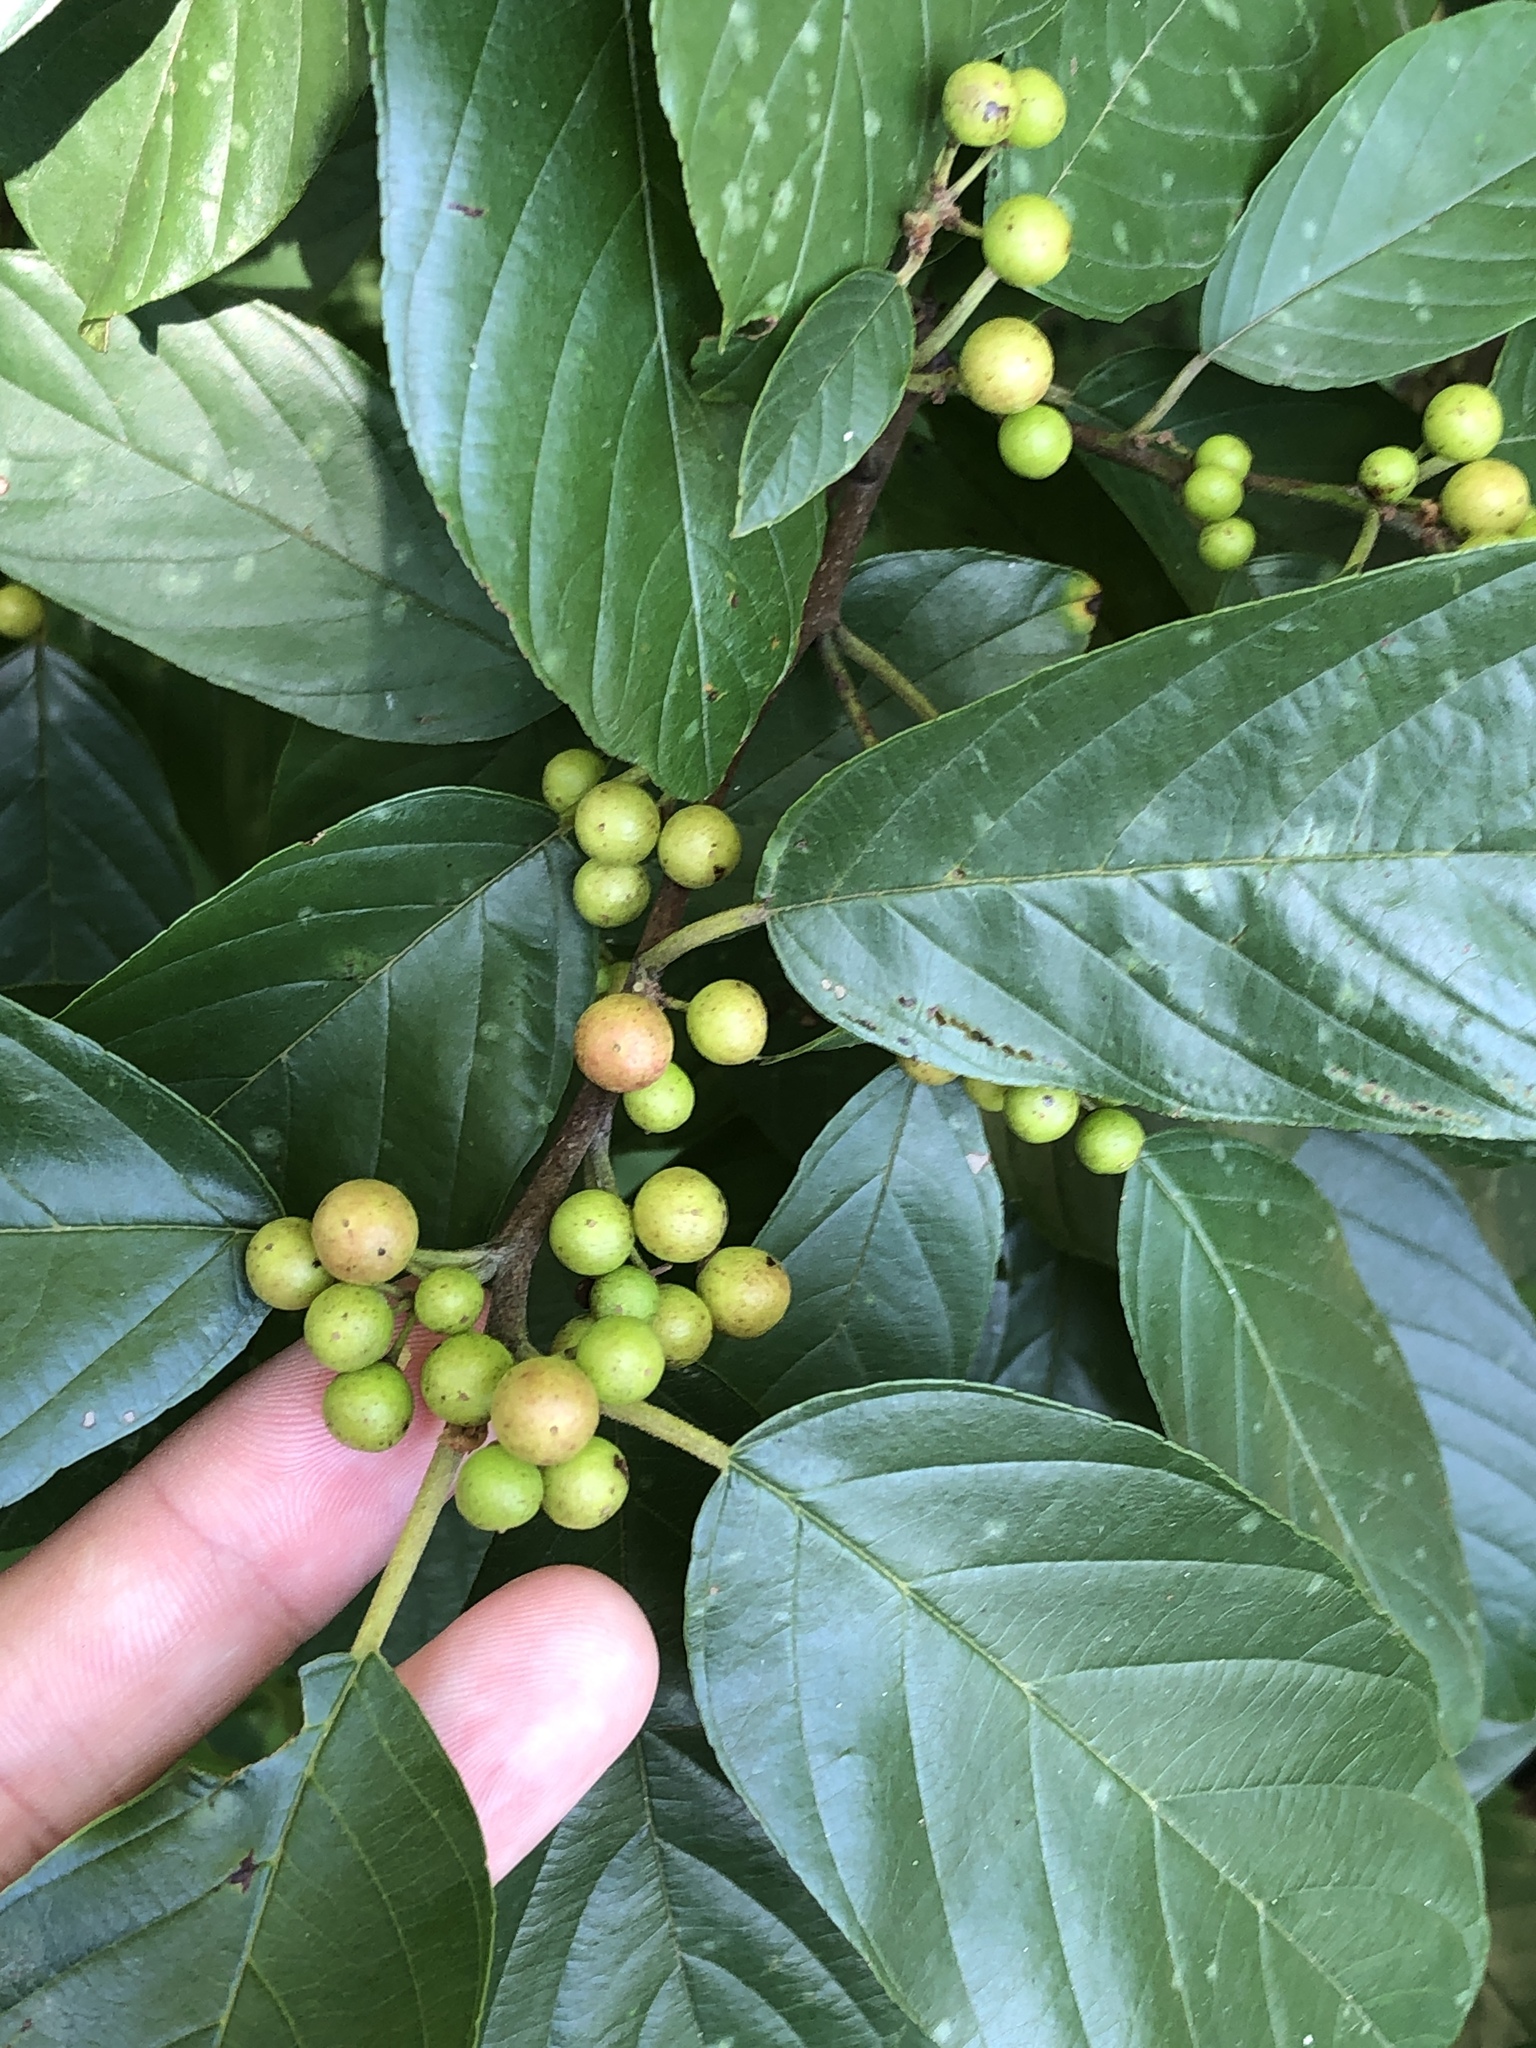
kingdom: Plantae
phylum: Tracheophyta
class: Magnoliopsida
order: Rosales
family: Rhamnaceae
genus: Frangula
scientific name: Frangula caroliniana
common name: Carolina buckthorn
